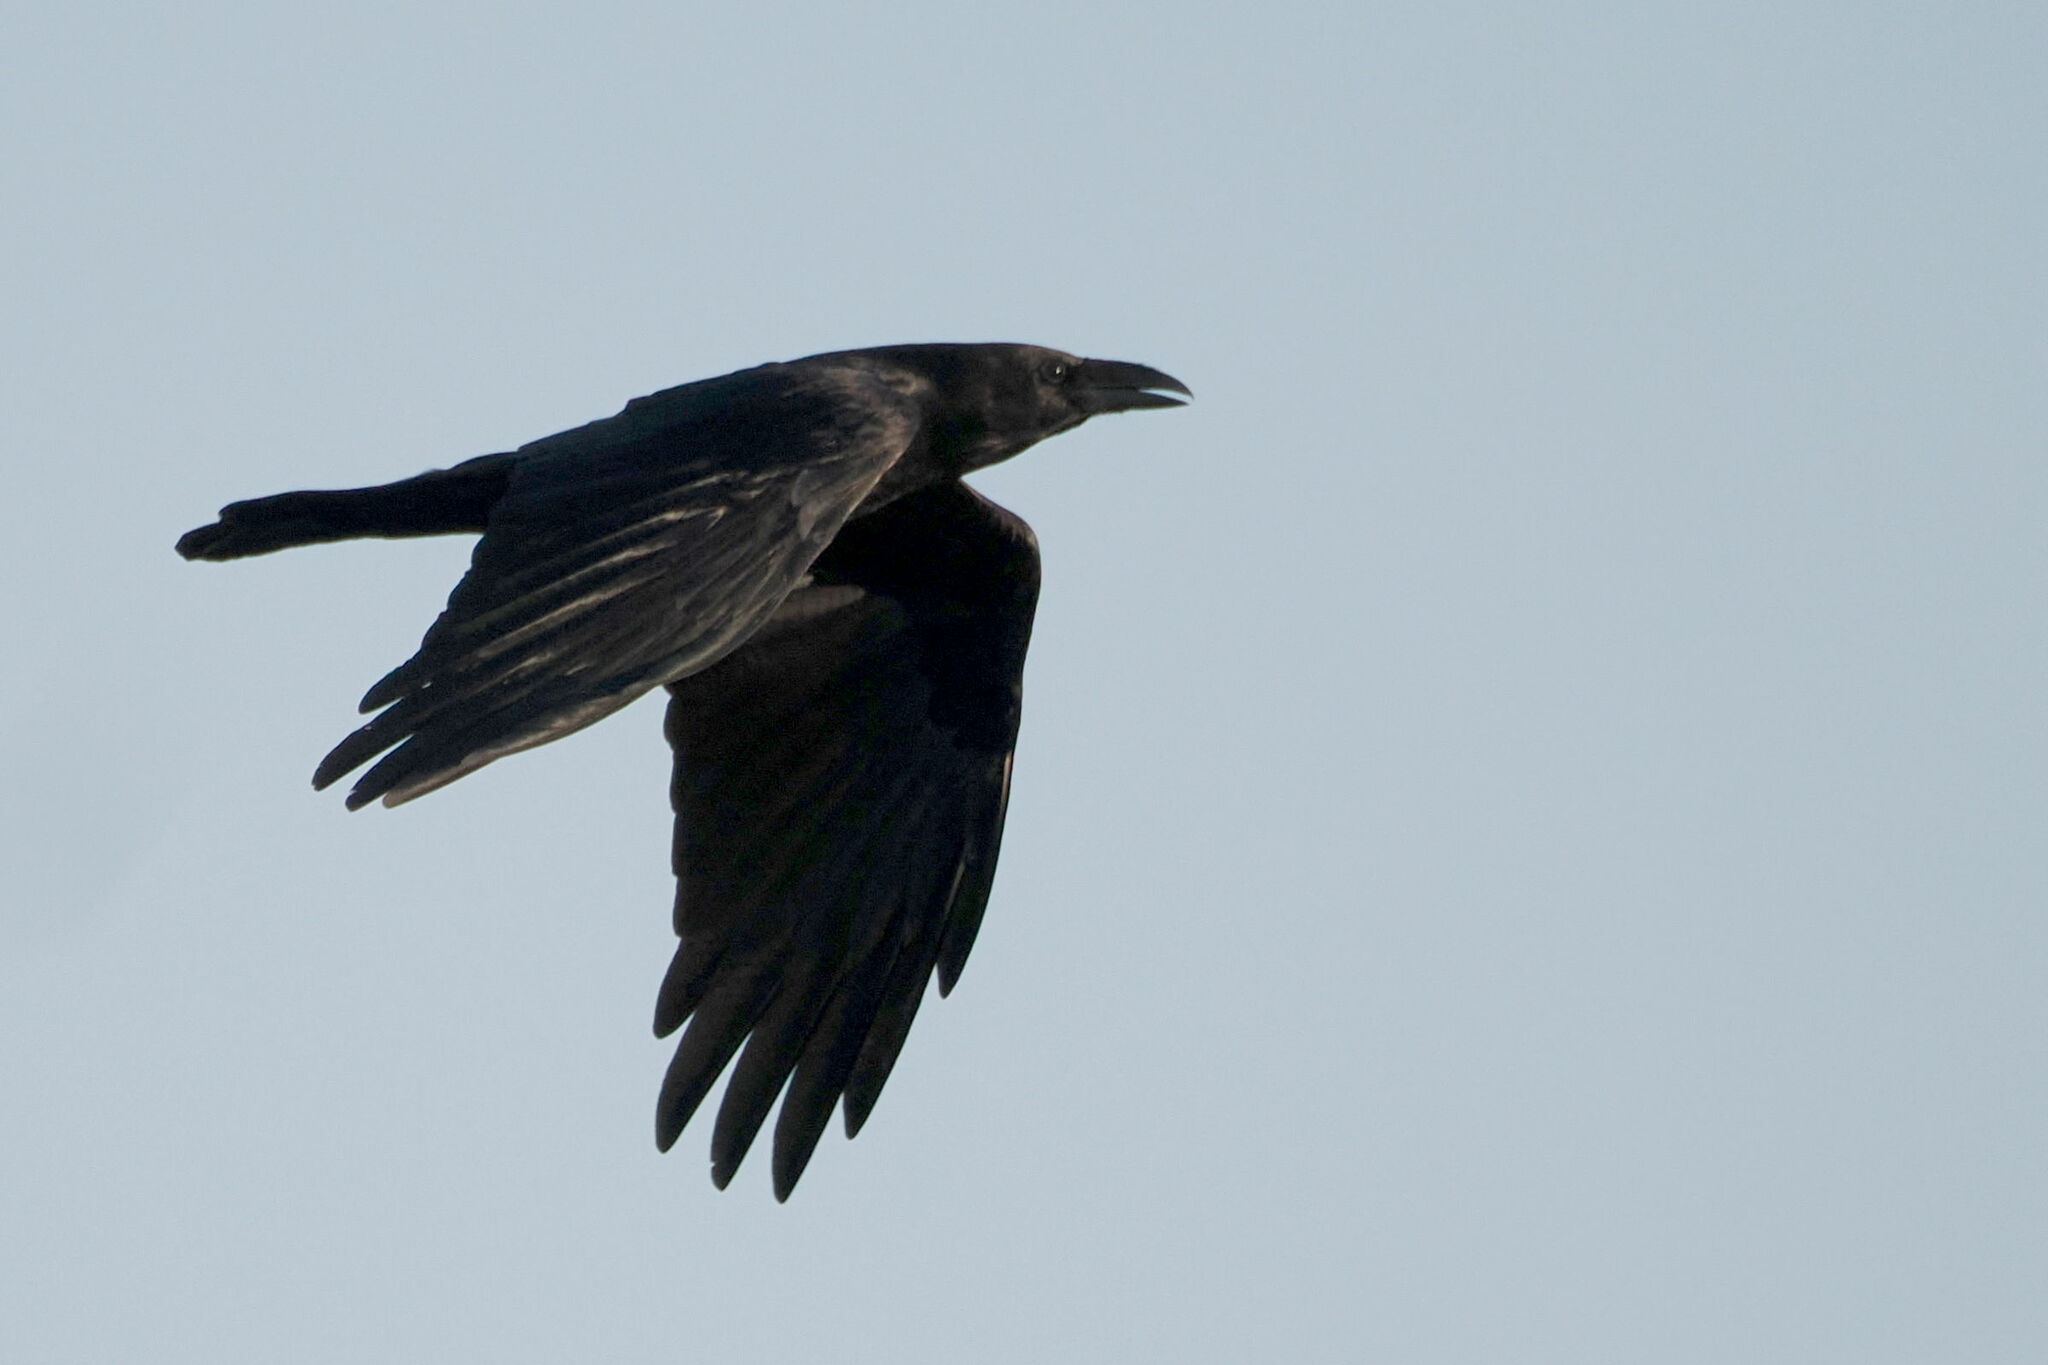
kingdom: Animalia
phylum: Chordata
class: Aves
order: Passeriformes
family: Corvidae
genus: Corvus
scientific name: Corvus cryptoleucus
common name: Chihuahuan raven
